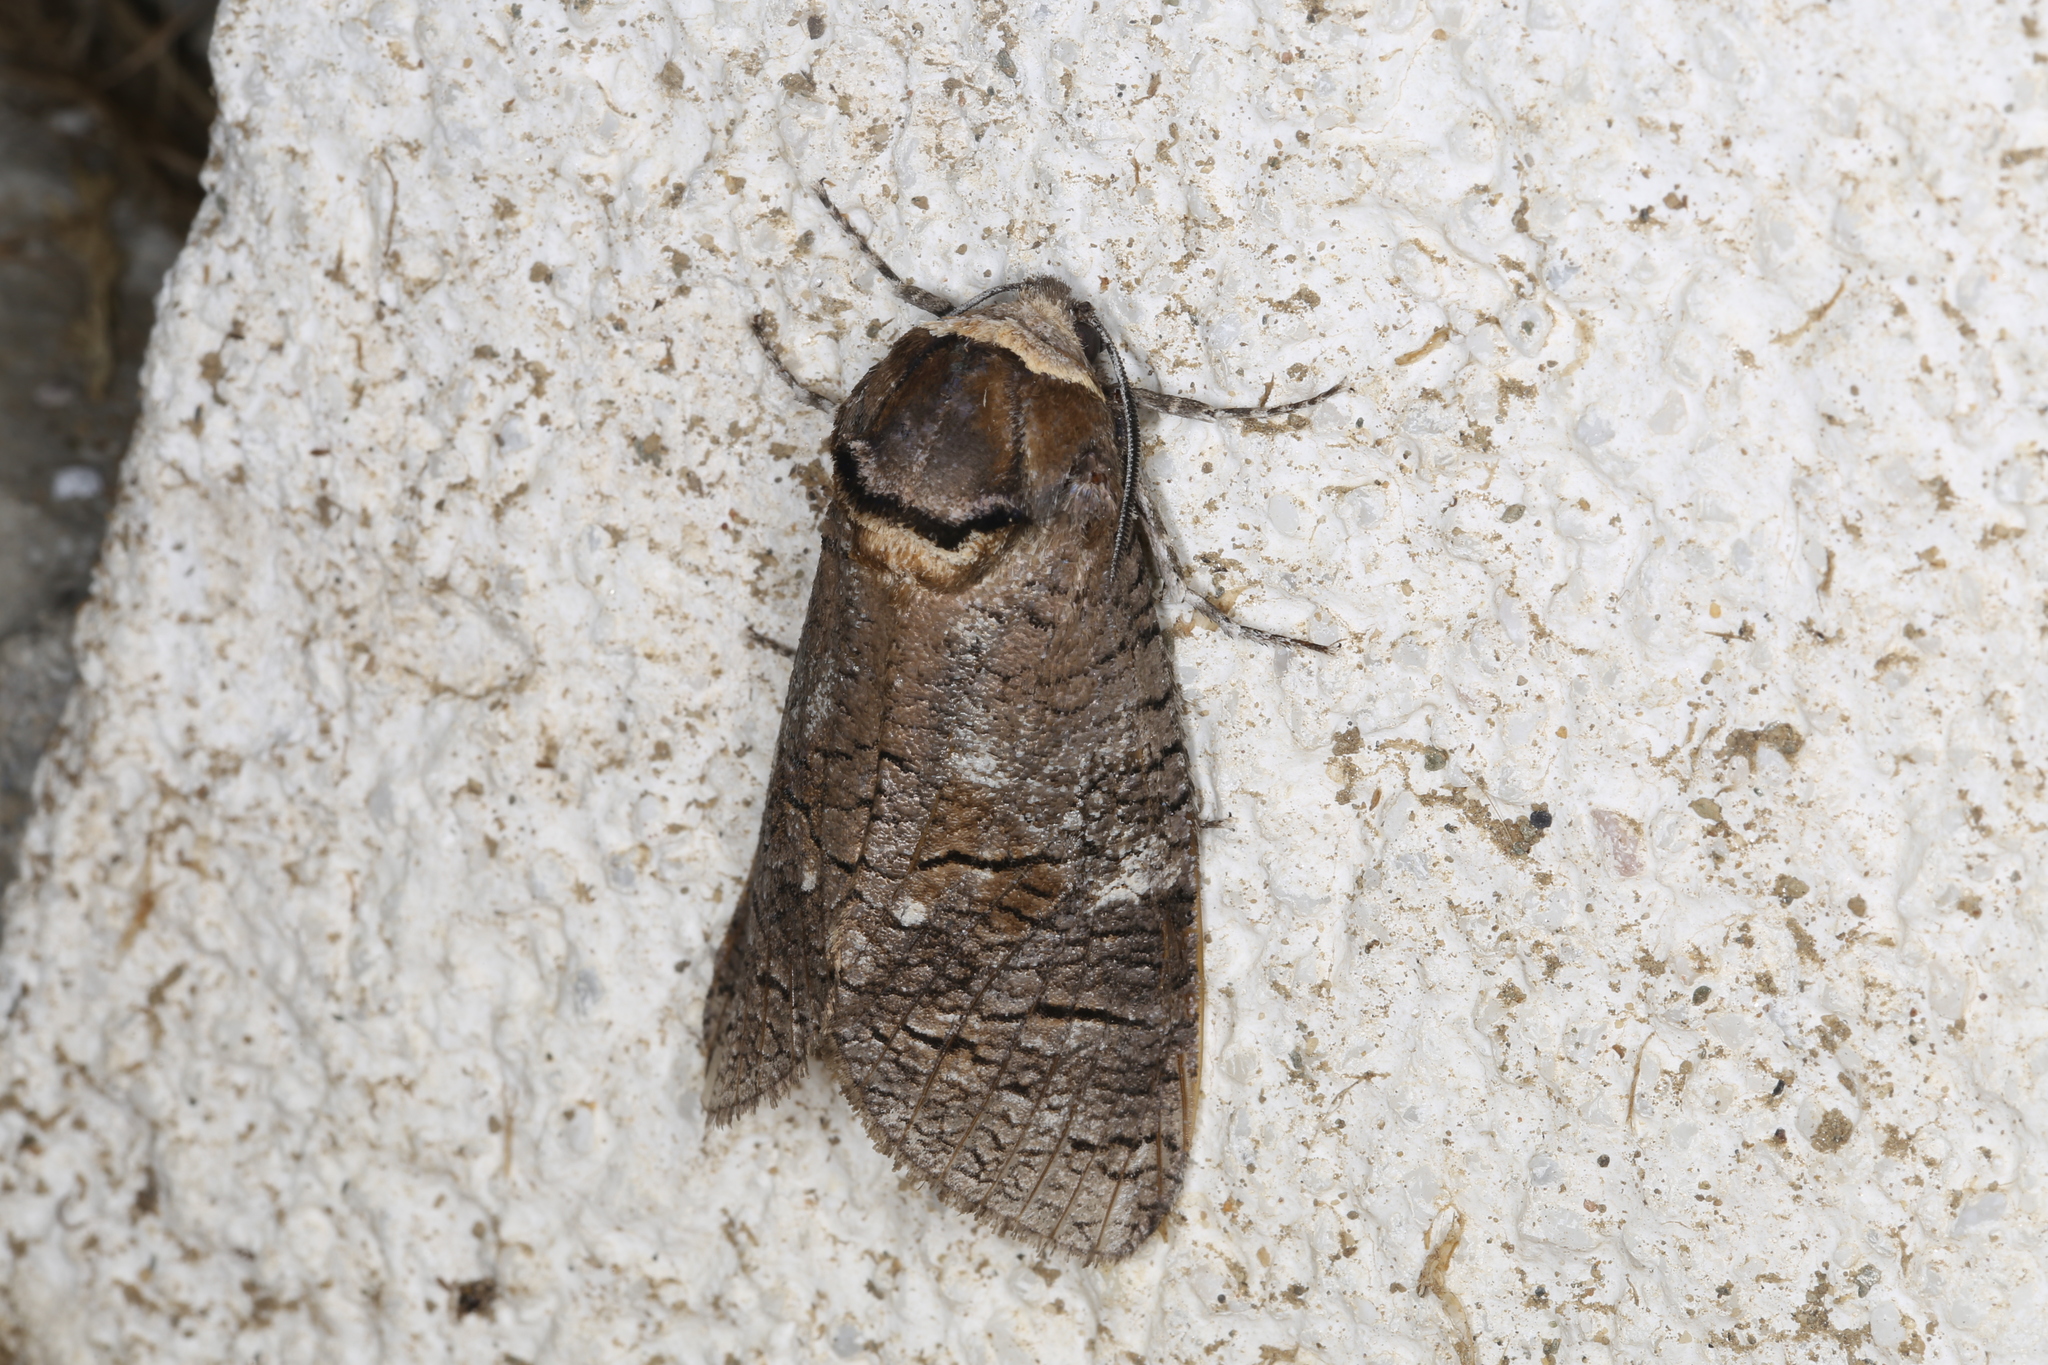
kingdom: Animalia
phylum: Arthropoda
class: Insecta
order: Lepidoptera
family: Cossidae
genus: Cossus
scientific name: Cossus cossus
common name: Goat moth
